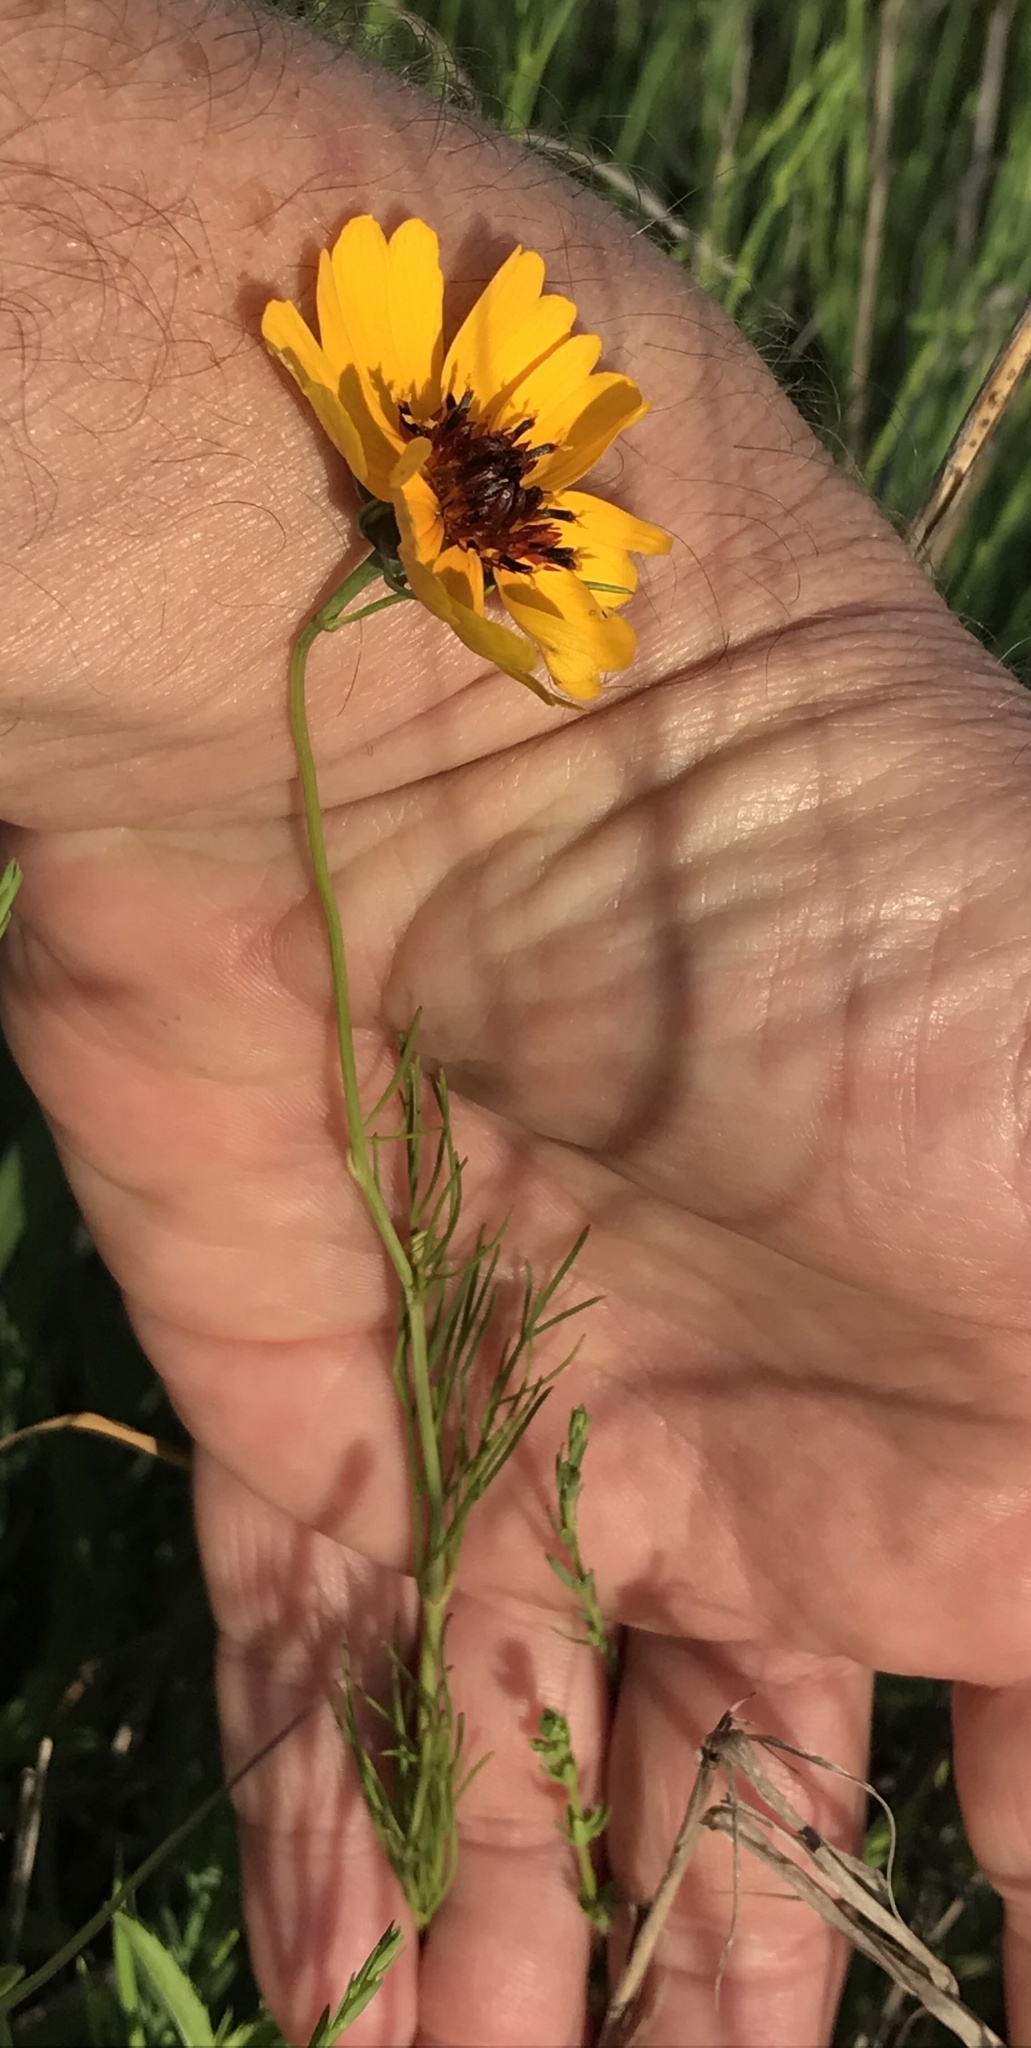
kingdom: Plantae
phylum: Tracheophyta
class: Magnoliopsida
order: Asterales
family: Asteraceae
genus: Thelesperma
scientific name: Thelesperma filifolium
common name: Stiff greenthread
